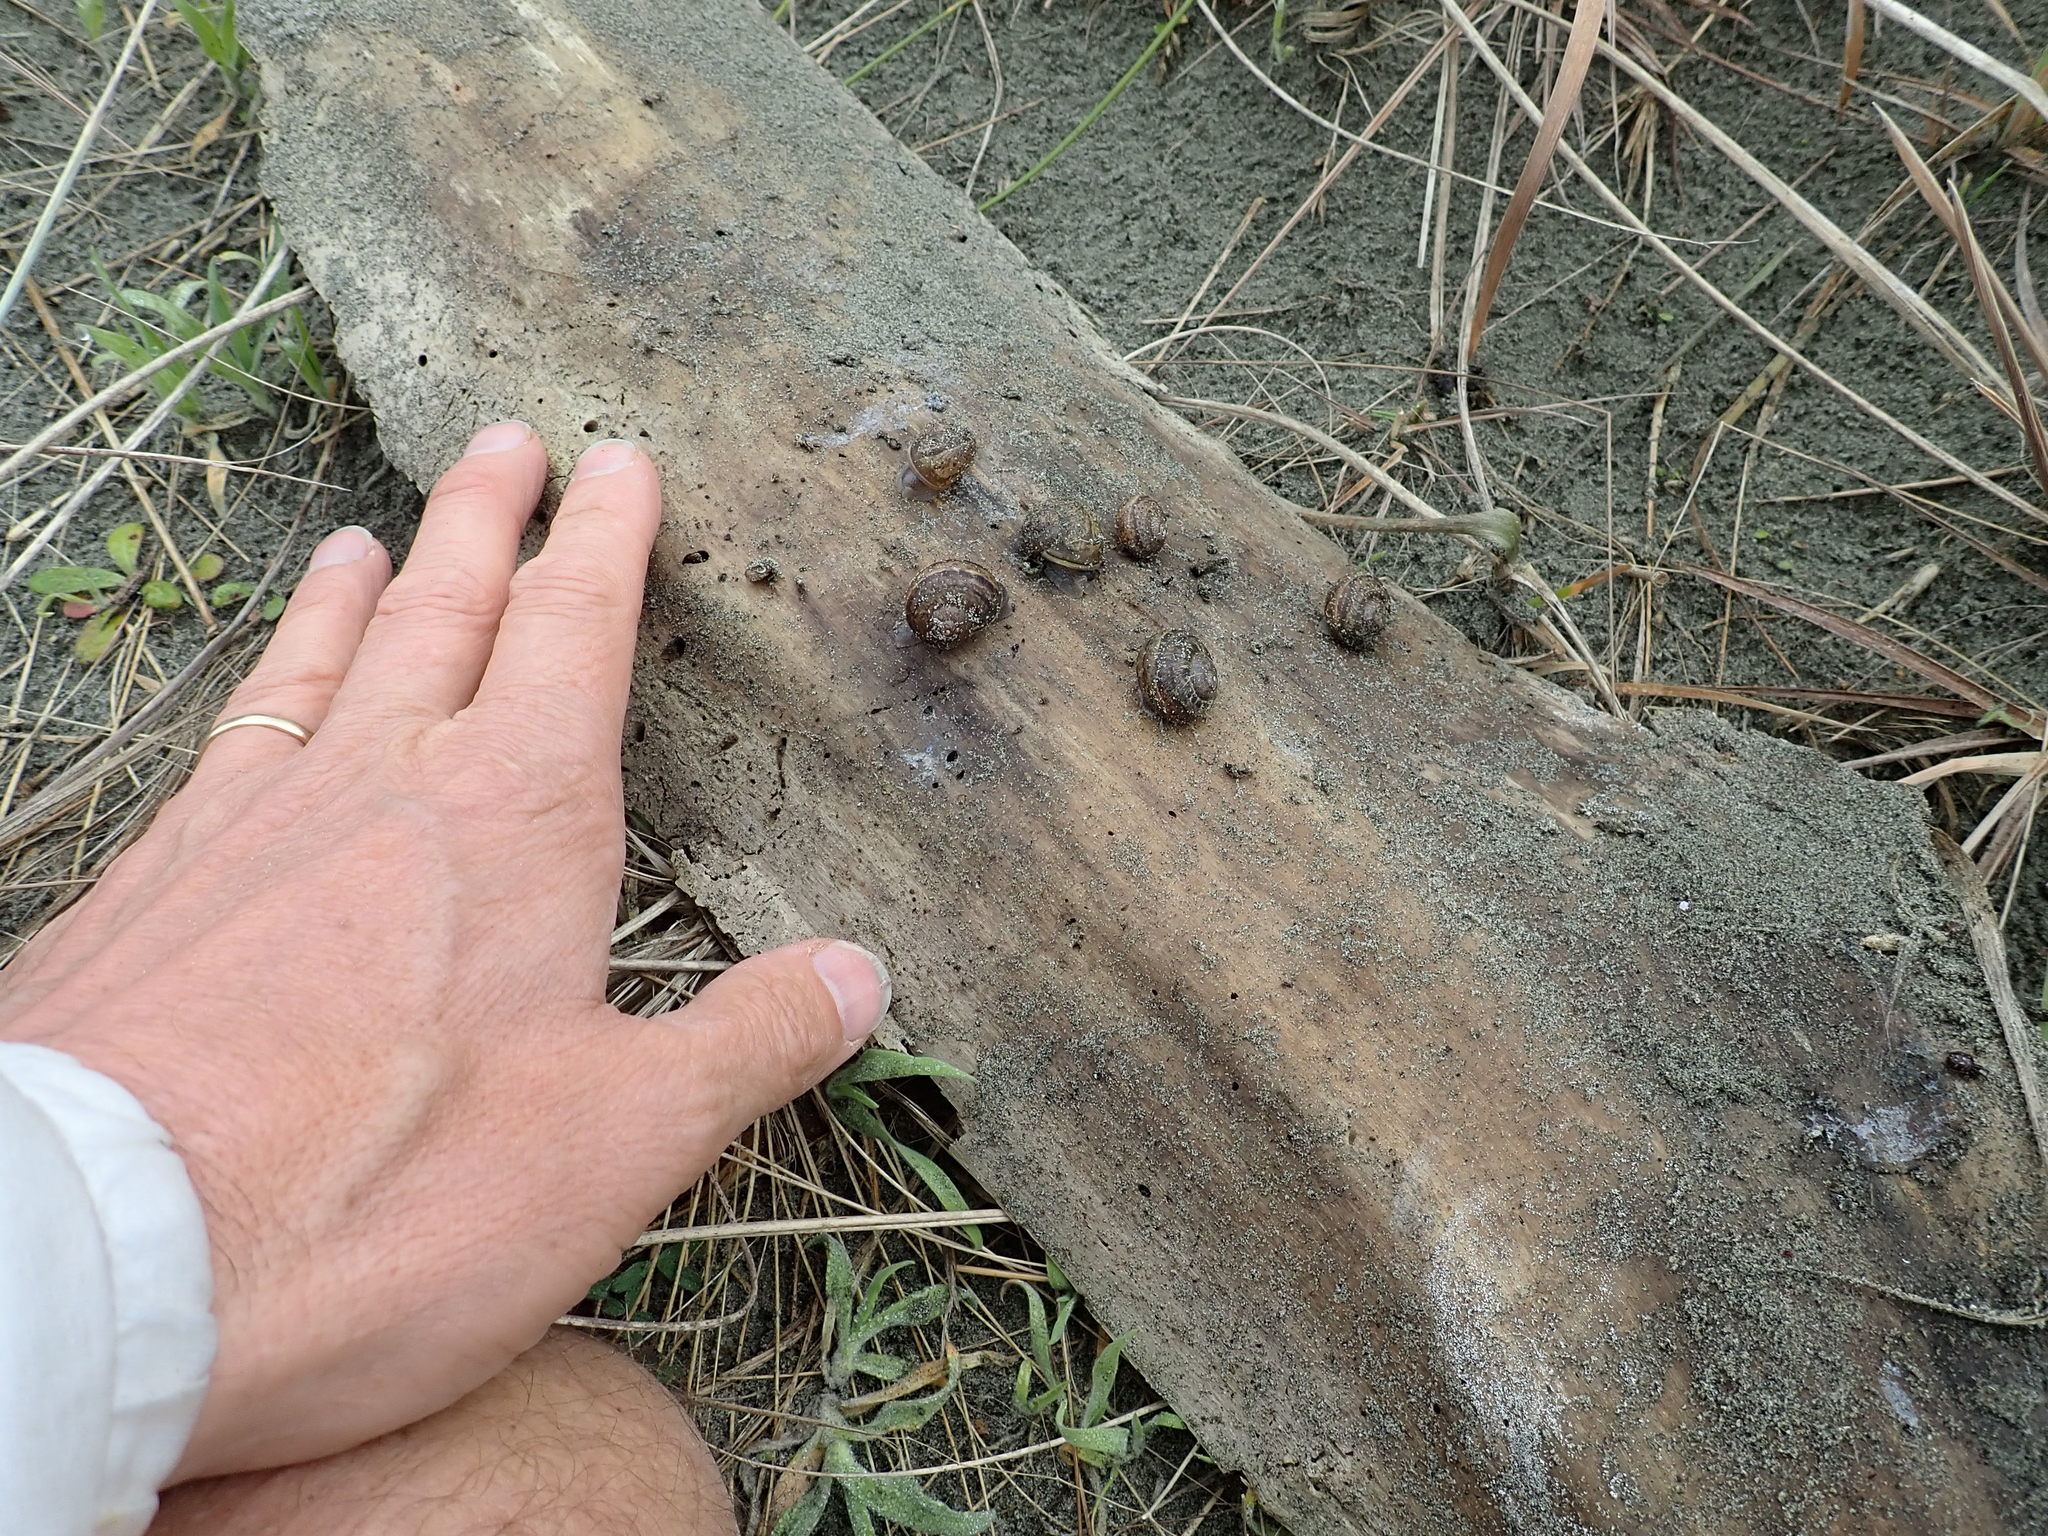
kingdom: Animalia
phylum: Mollusca
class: Gastropoda
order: Stylommatophora
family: Helicidae
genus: Cornu
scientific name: Cornu aspersum
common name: Brown garden snail
